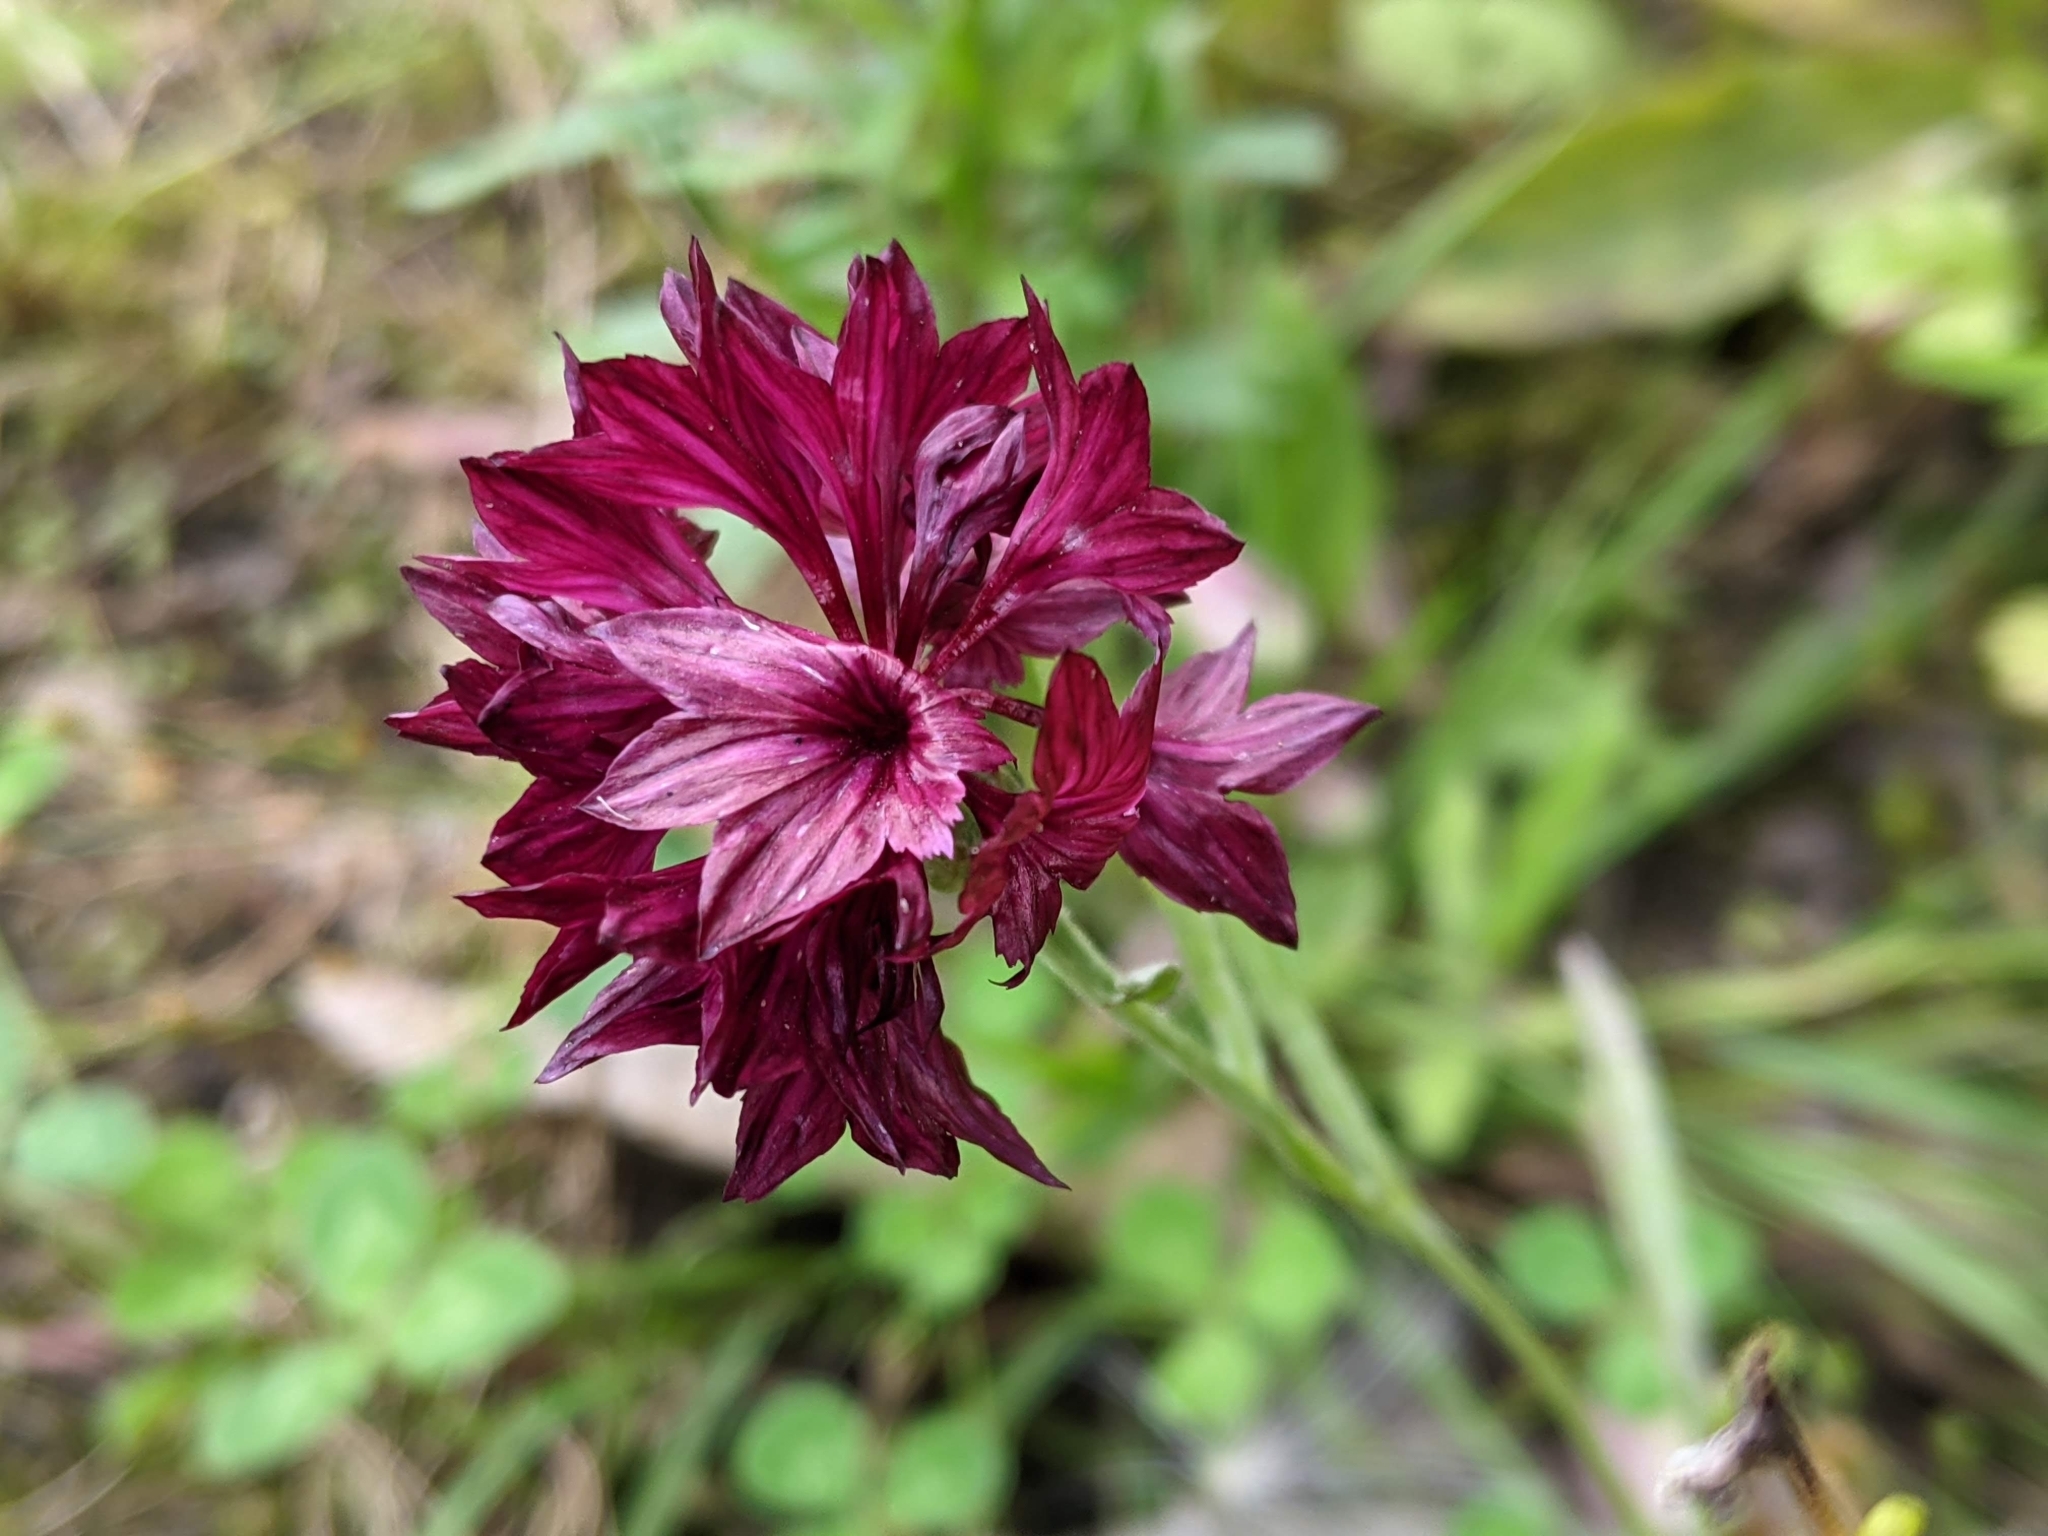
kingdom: Plantae
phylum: Tracheophyta
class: Magnoliopsida
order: Asterales
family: Asteraceae
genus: Centaurea
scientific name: Centaurea cyanus
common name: Cornflower
